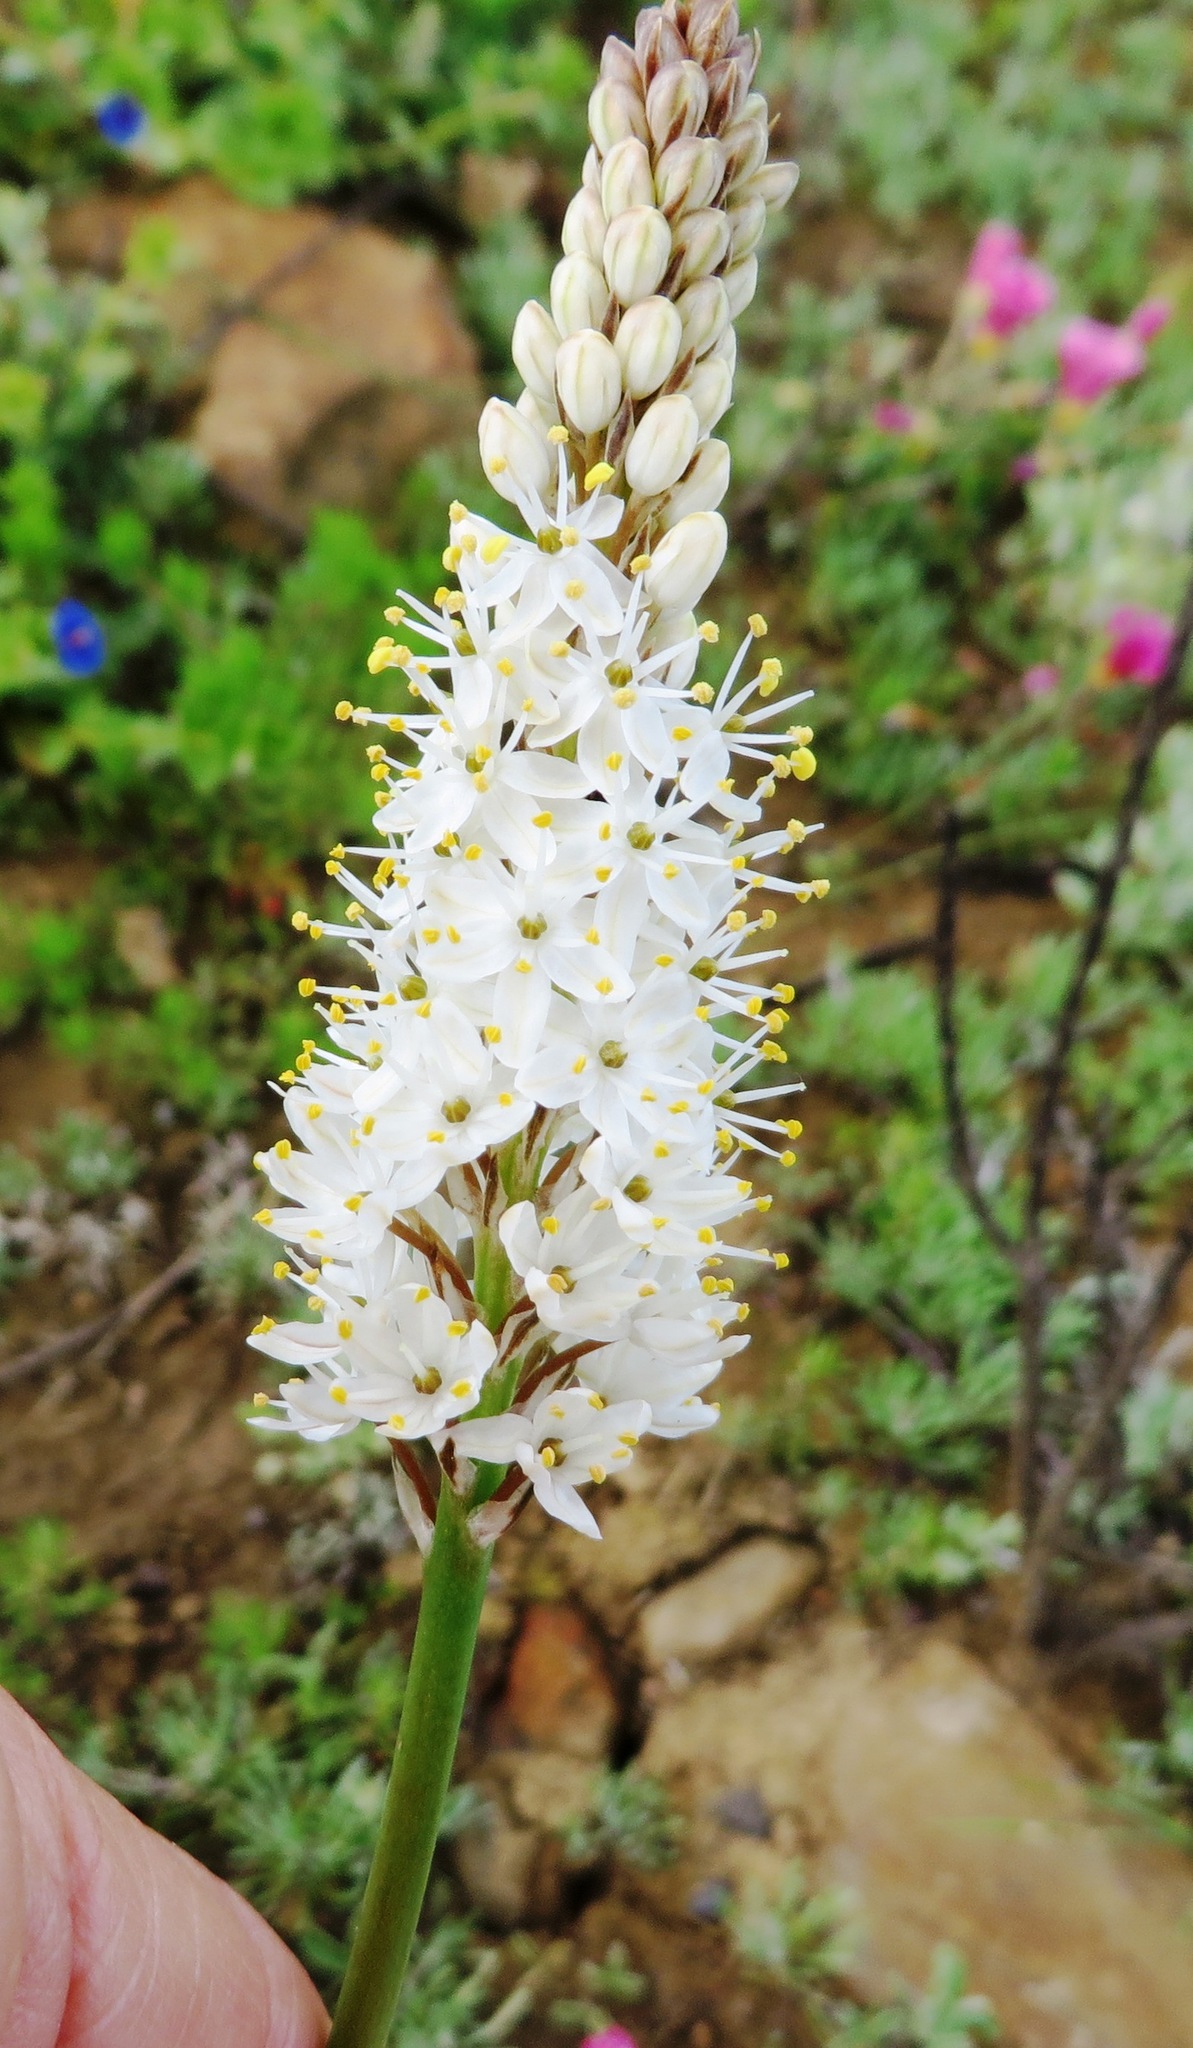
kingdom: Plantae
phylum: Tracheophyta
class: Liliopsida
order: Asparagales
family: Asphodelaceae
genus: Bulbinella
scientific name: Bulbinella barkerae
